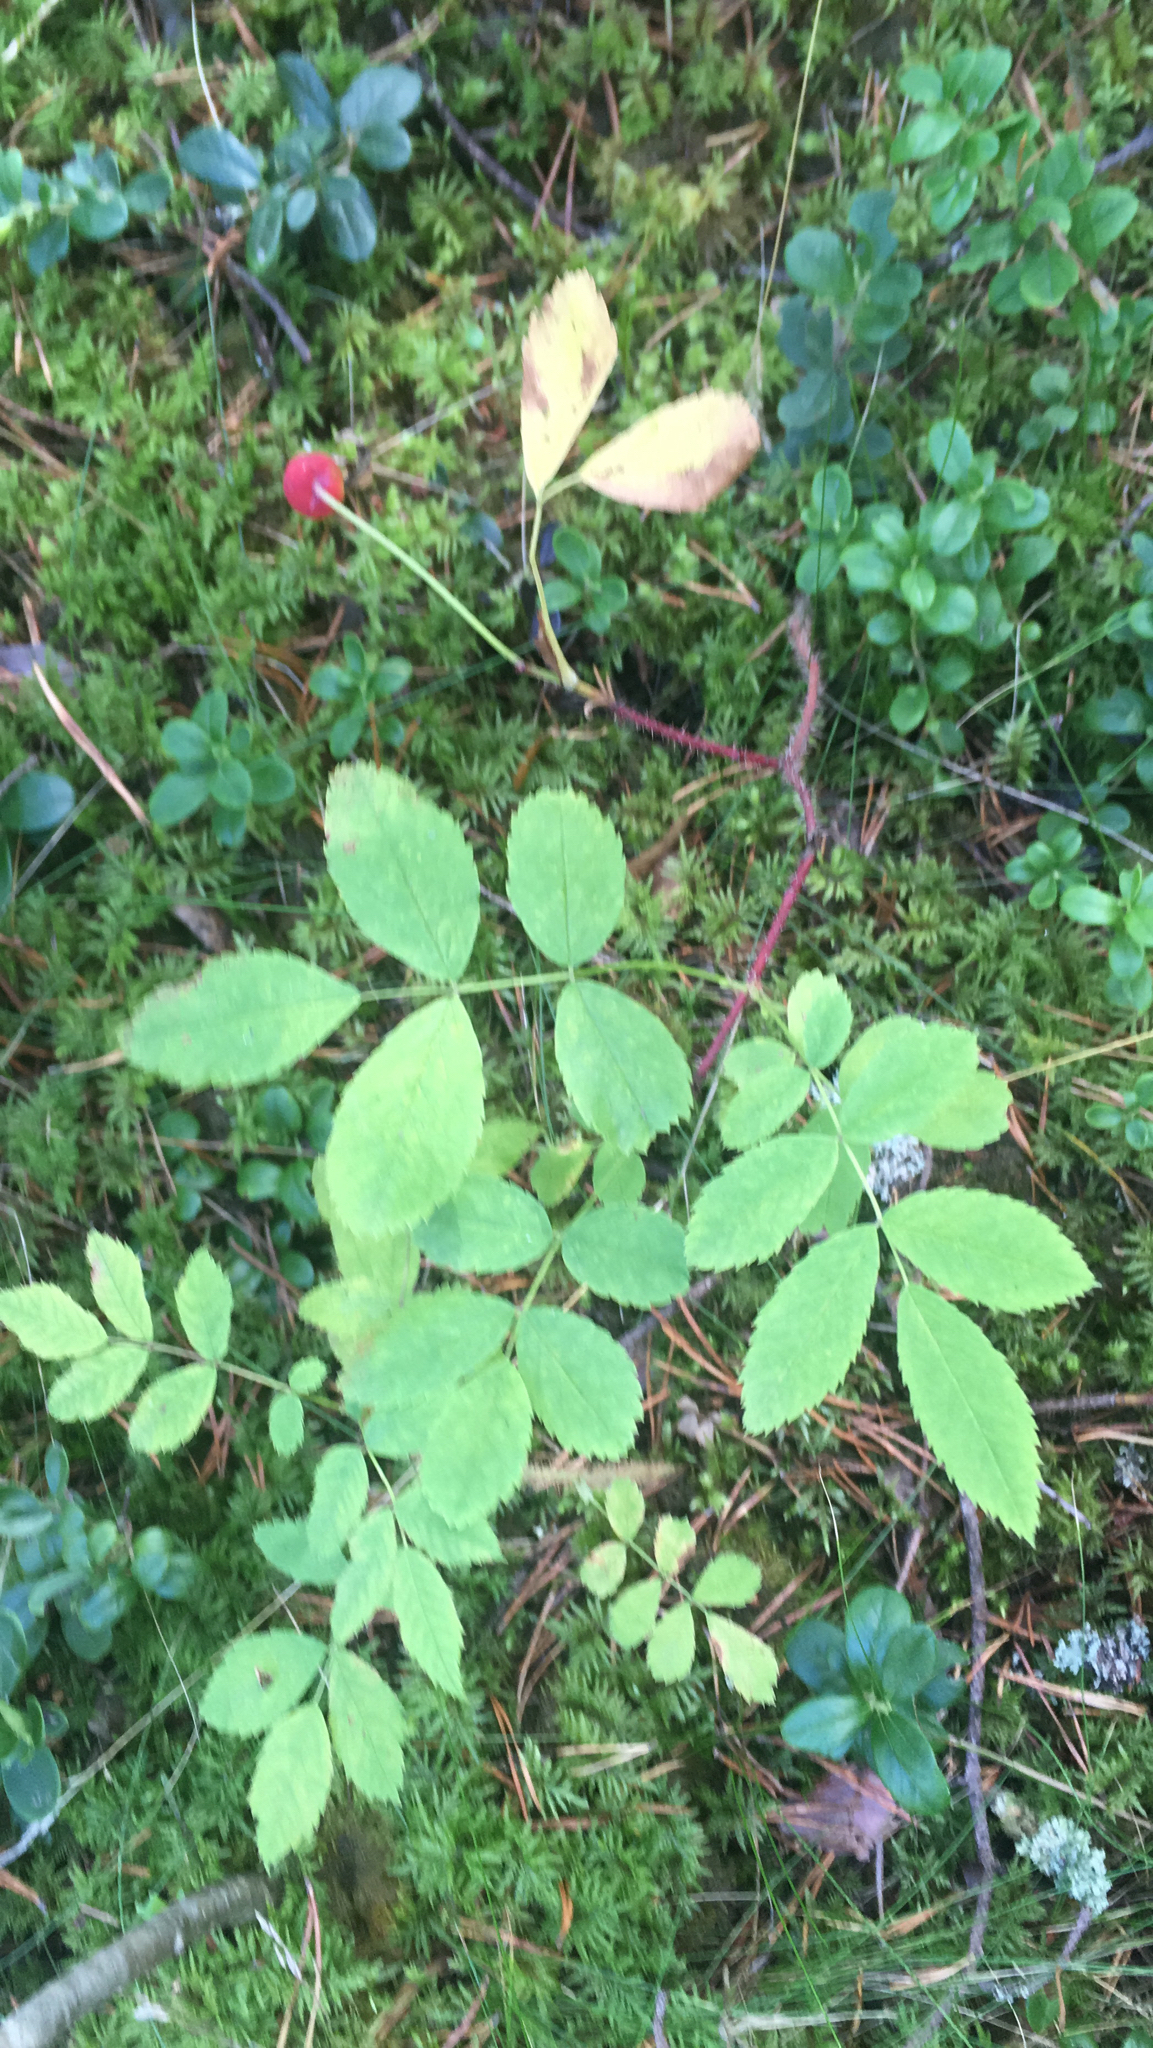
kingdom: Plantae
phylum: Tracheophyta
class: Magnoliopsida
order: Rosales
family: Rosaceae
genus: Rosa
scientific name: Rosa acicularis
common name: Prickly rose
